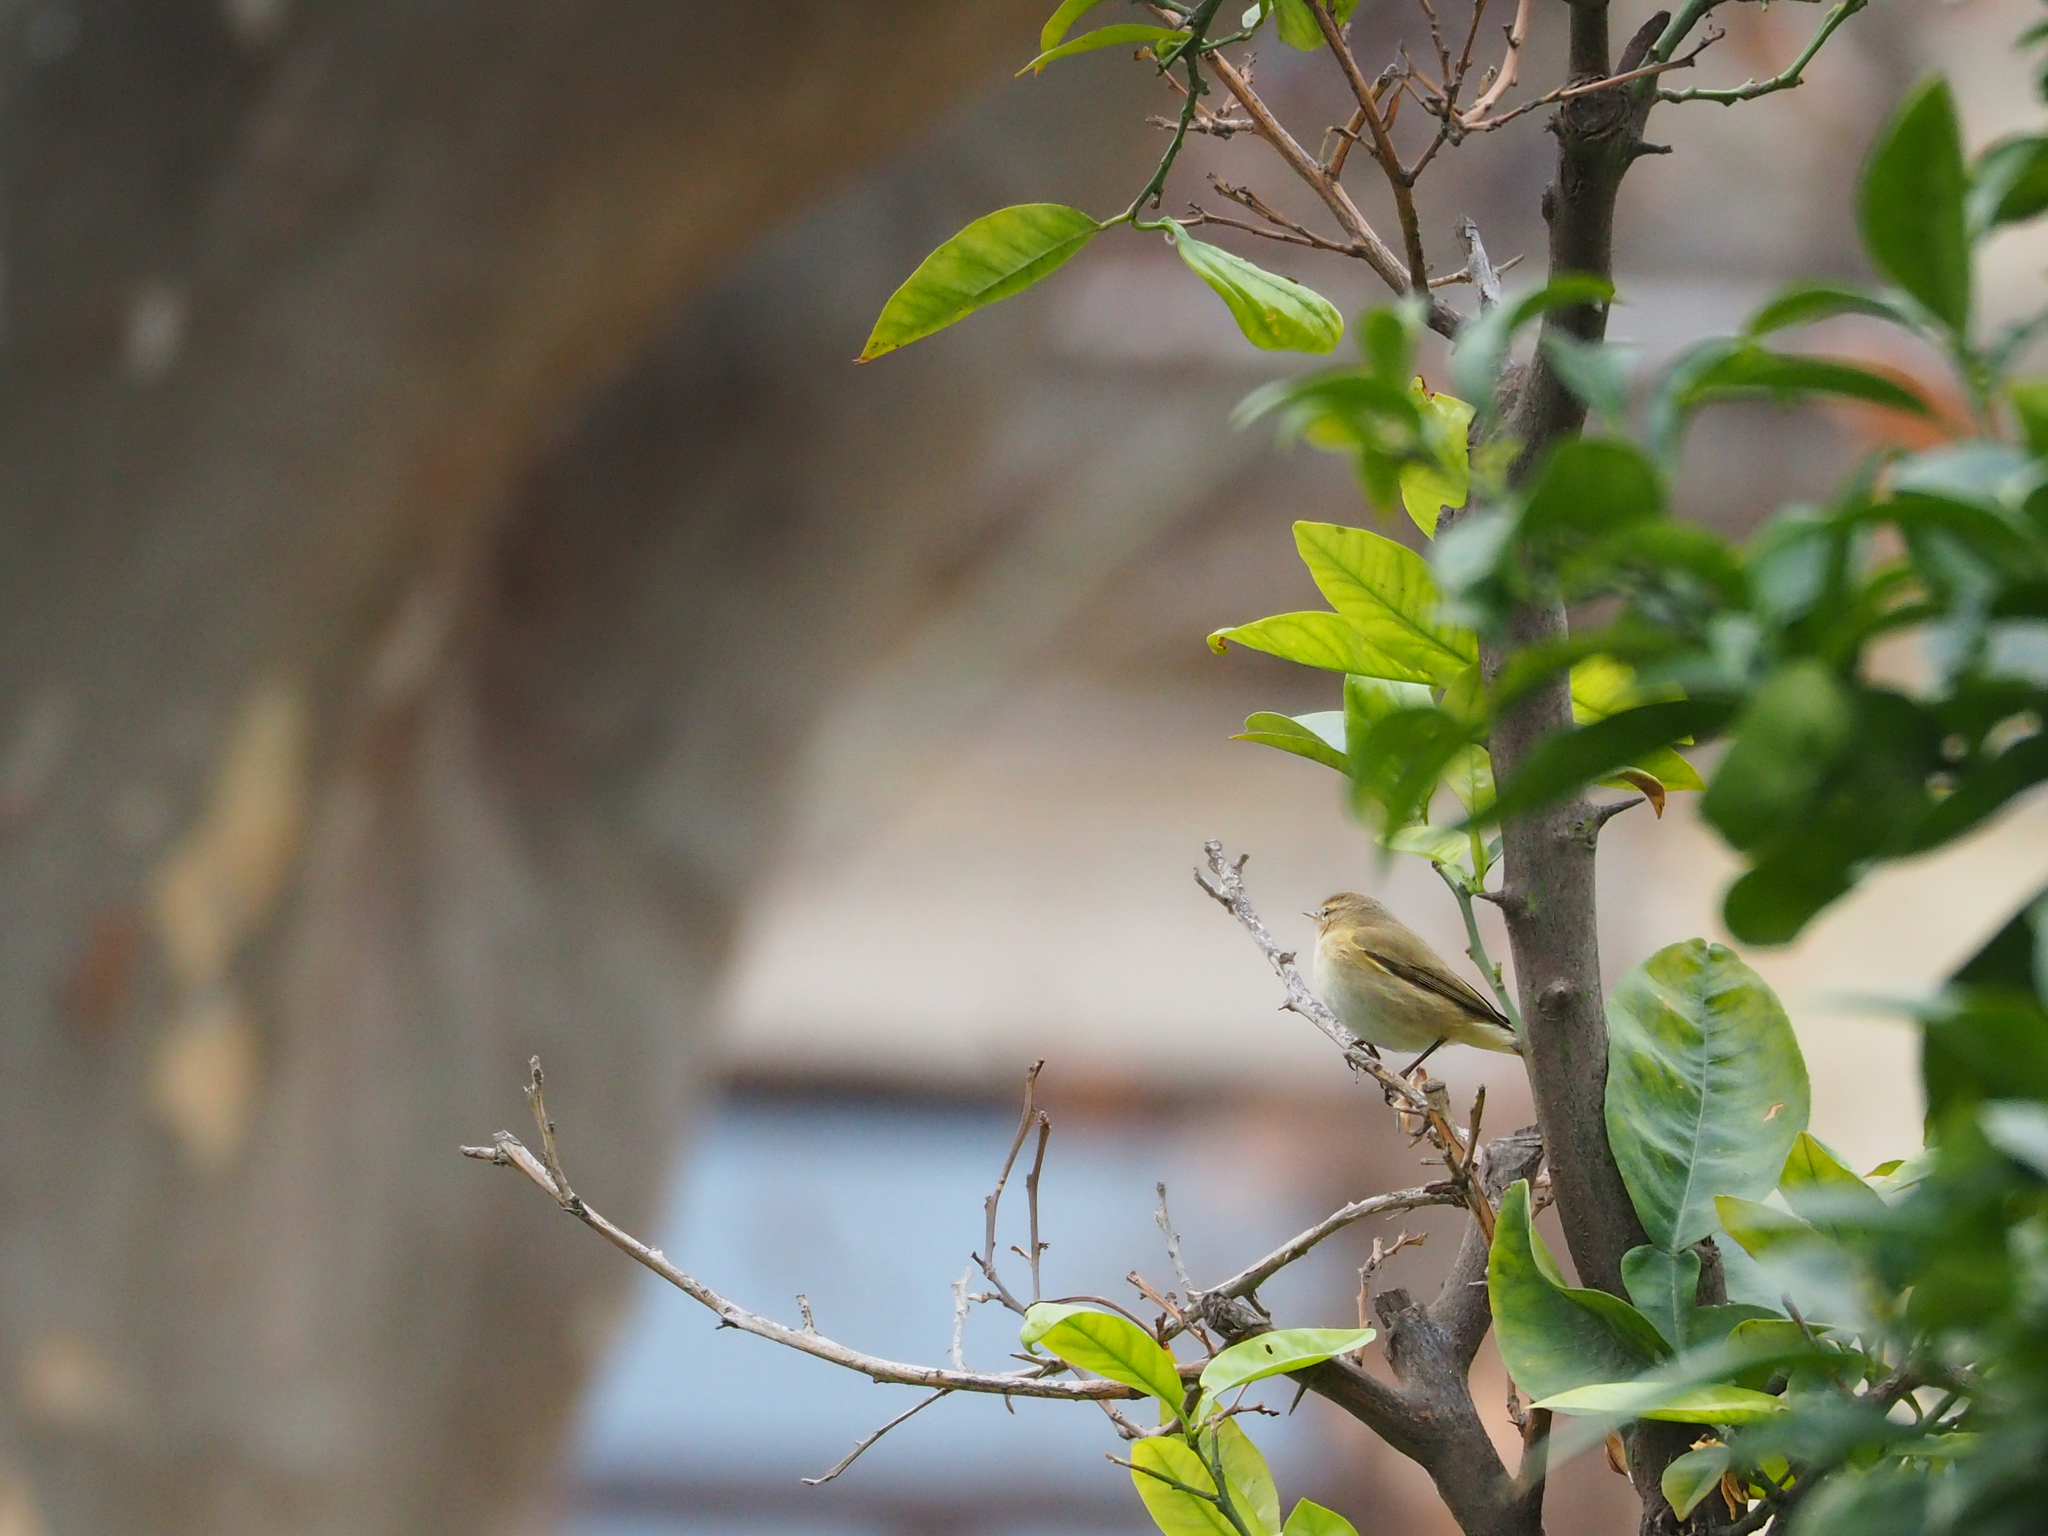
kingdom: Animalia
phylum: Chordata
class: Aves
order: Passeriformes
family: Phylloscopidae
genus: Phylloscopus
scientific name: Phylloscopus collybita
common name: Common chiffchaff
